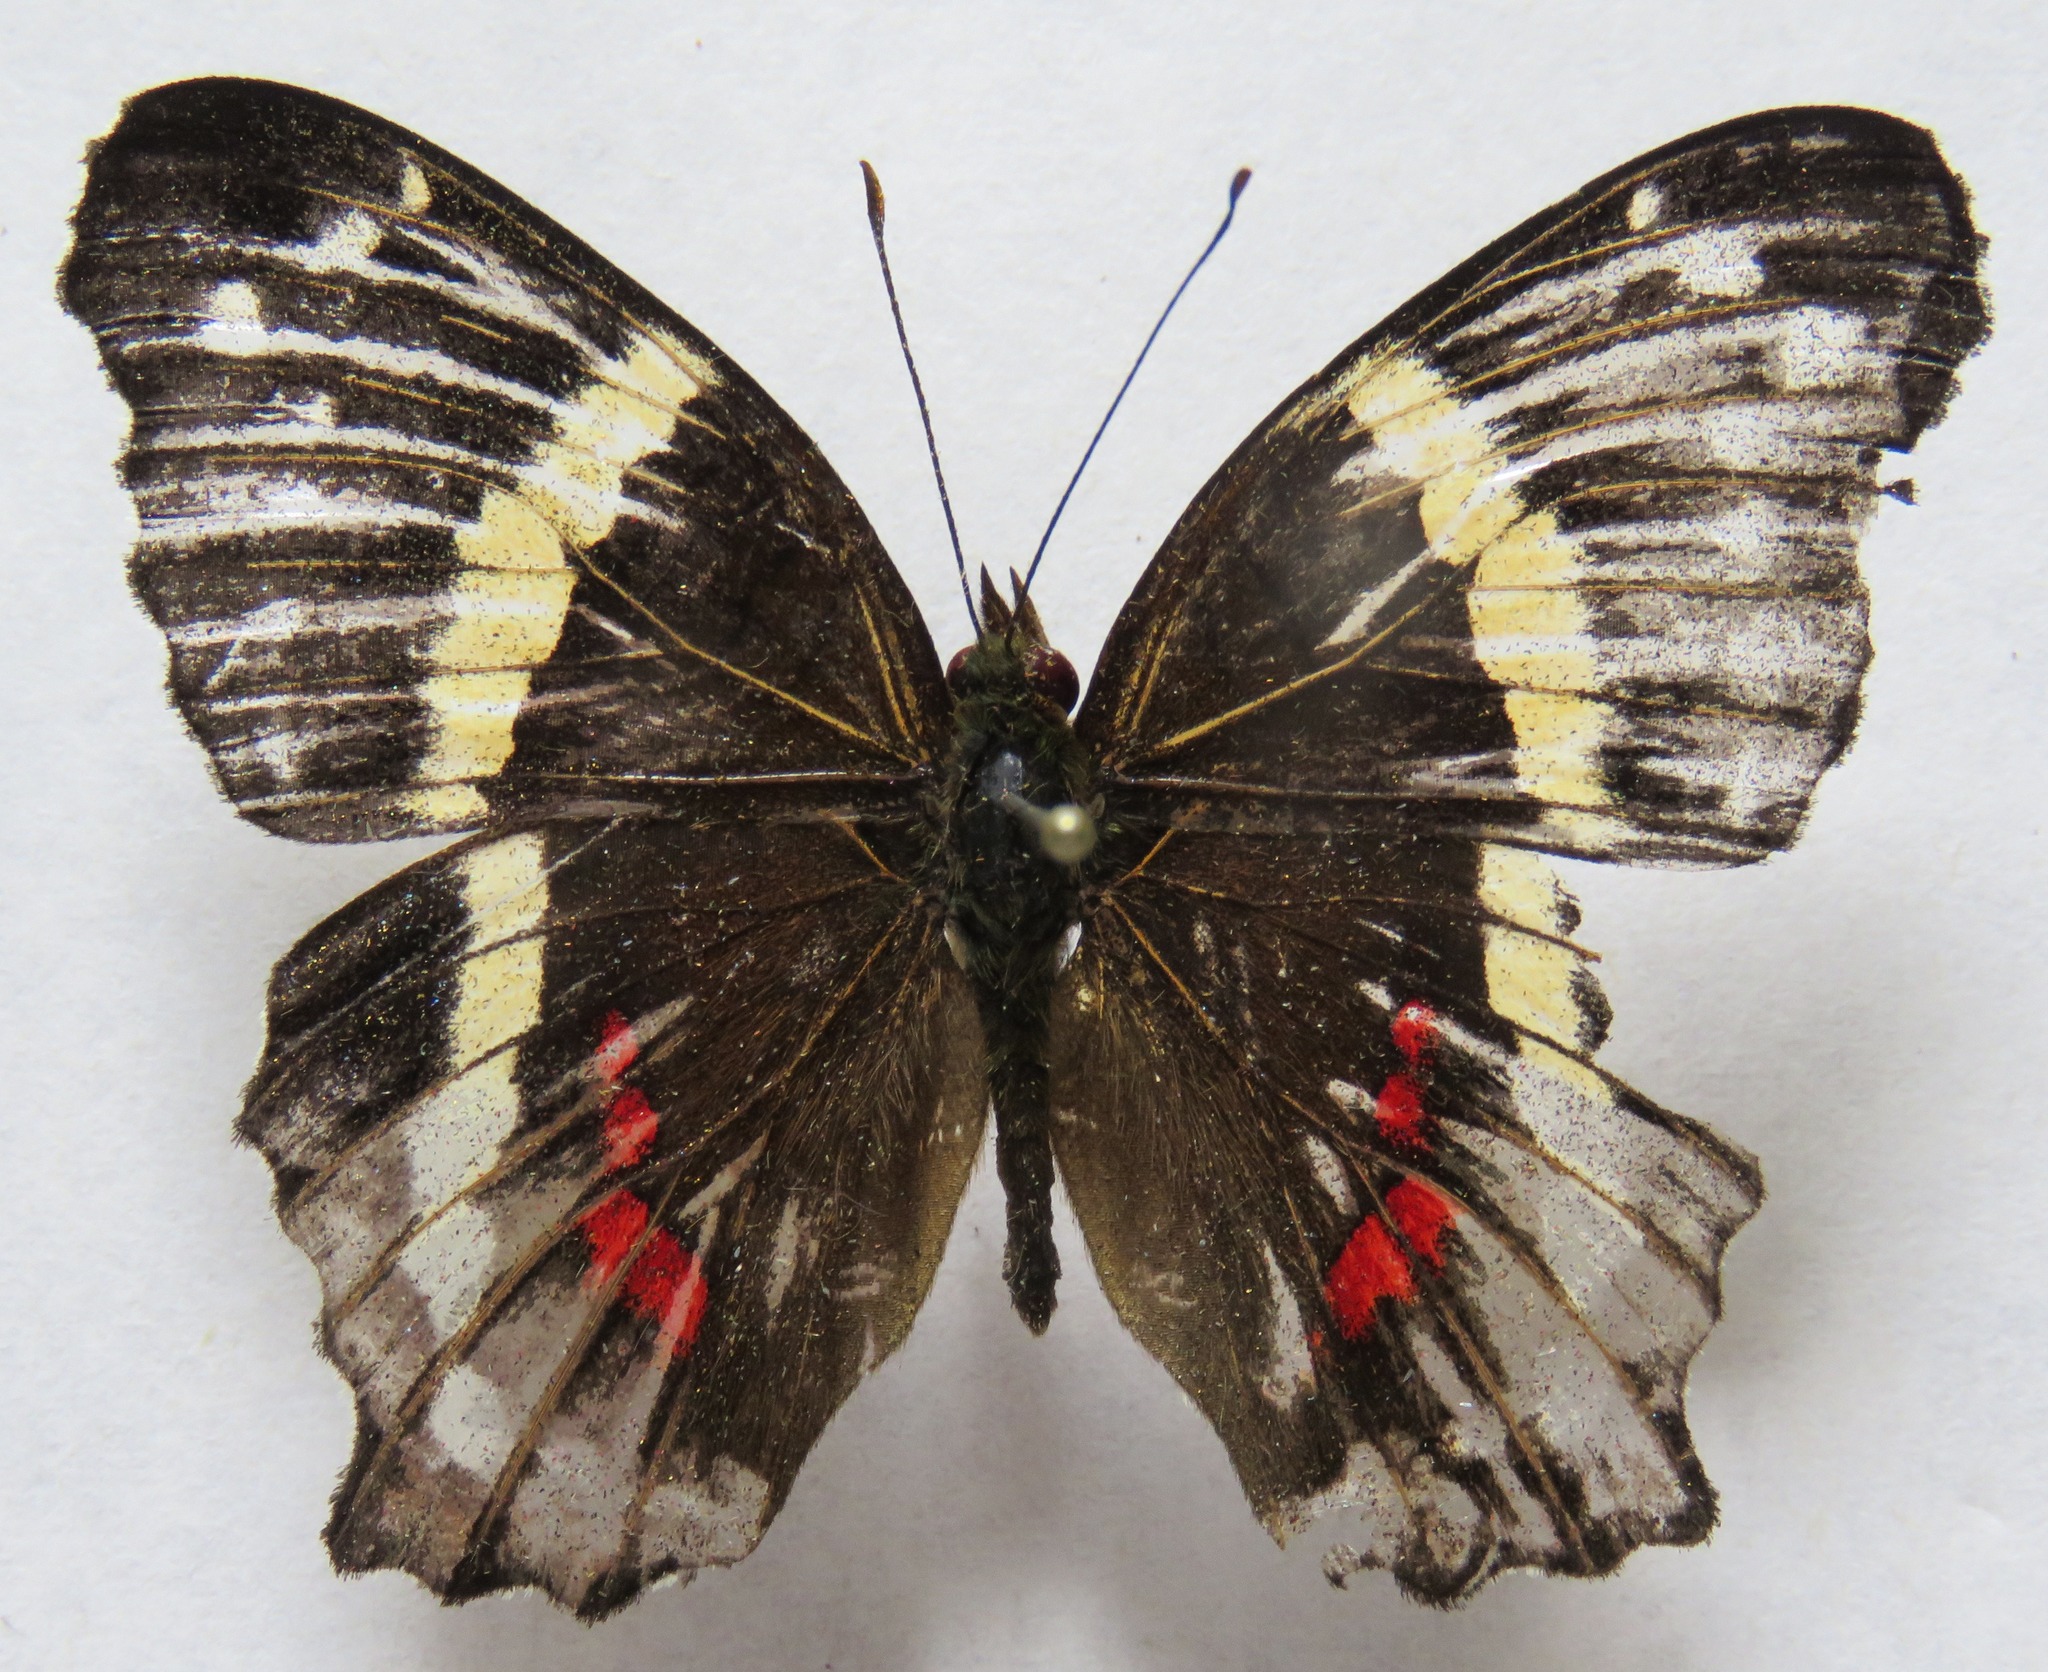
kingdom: Animalia
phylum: Arthropoda
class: Insecta
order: Lepidoptera
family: Nymphalidae
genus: Anartia
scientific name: Anartia fatima
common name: Banded peacock
